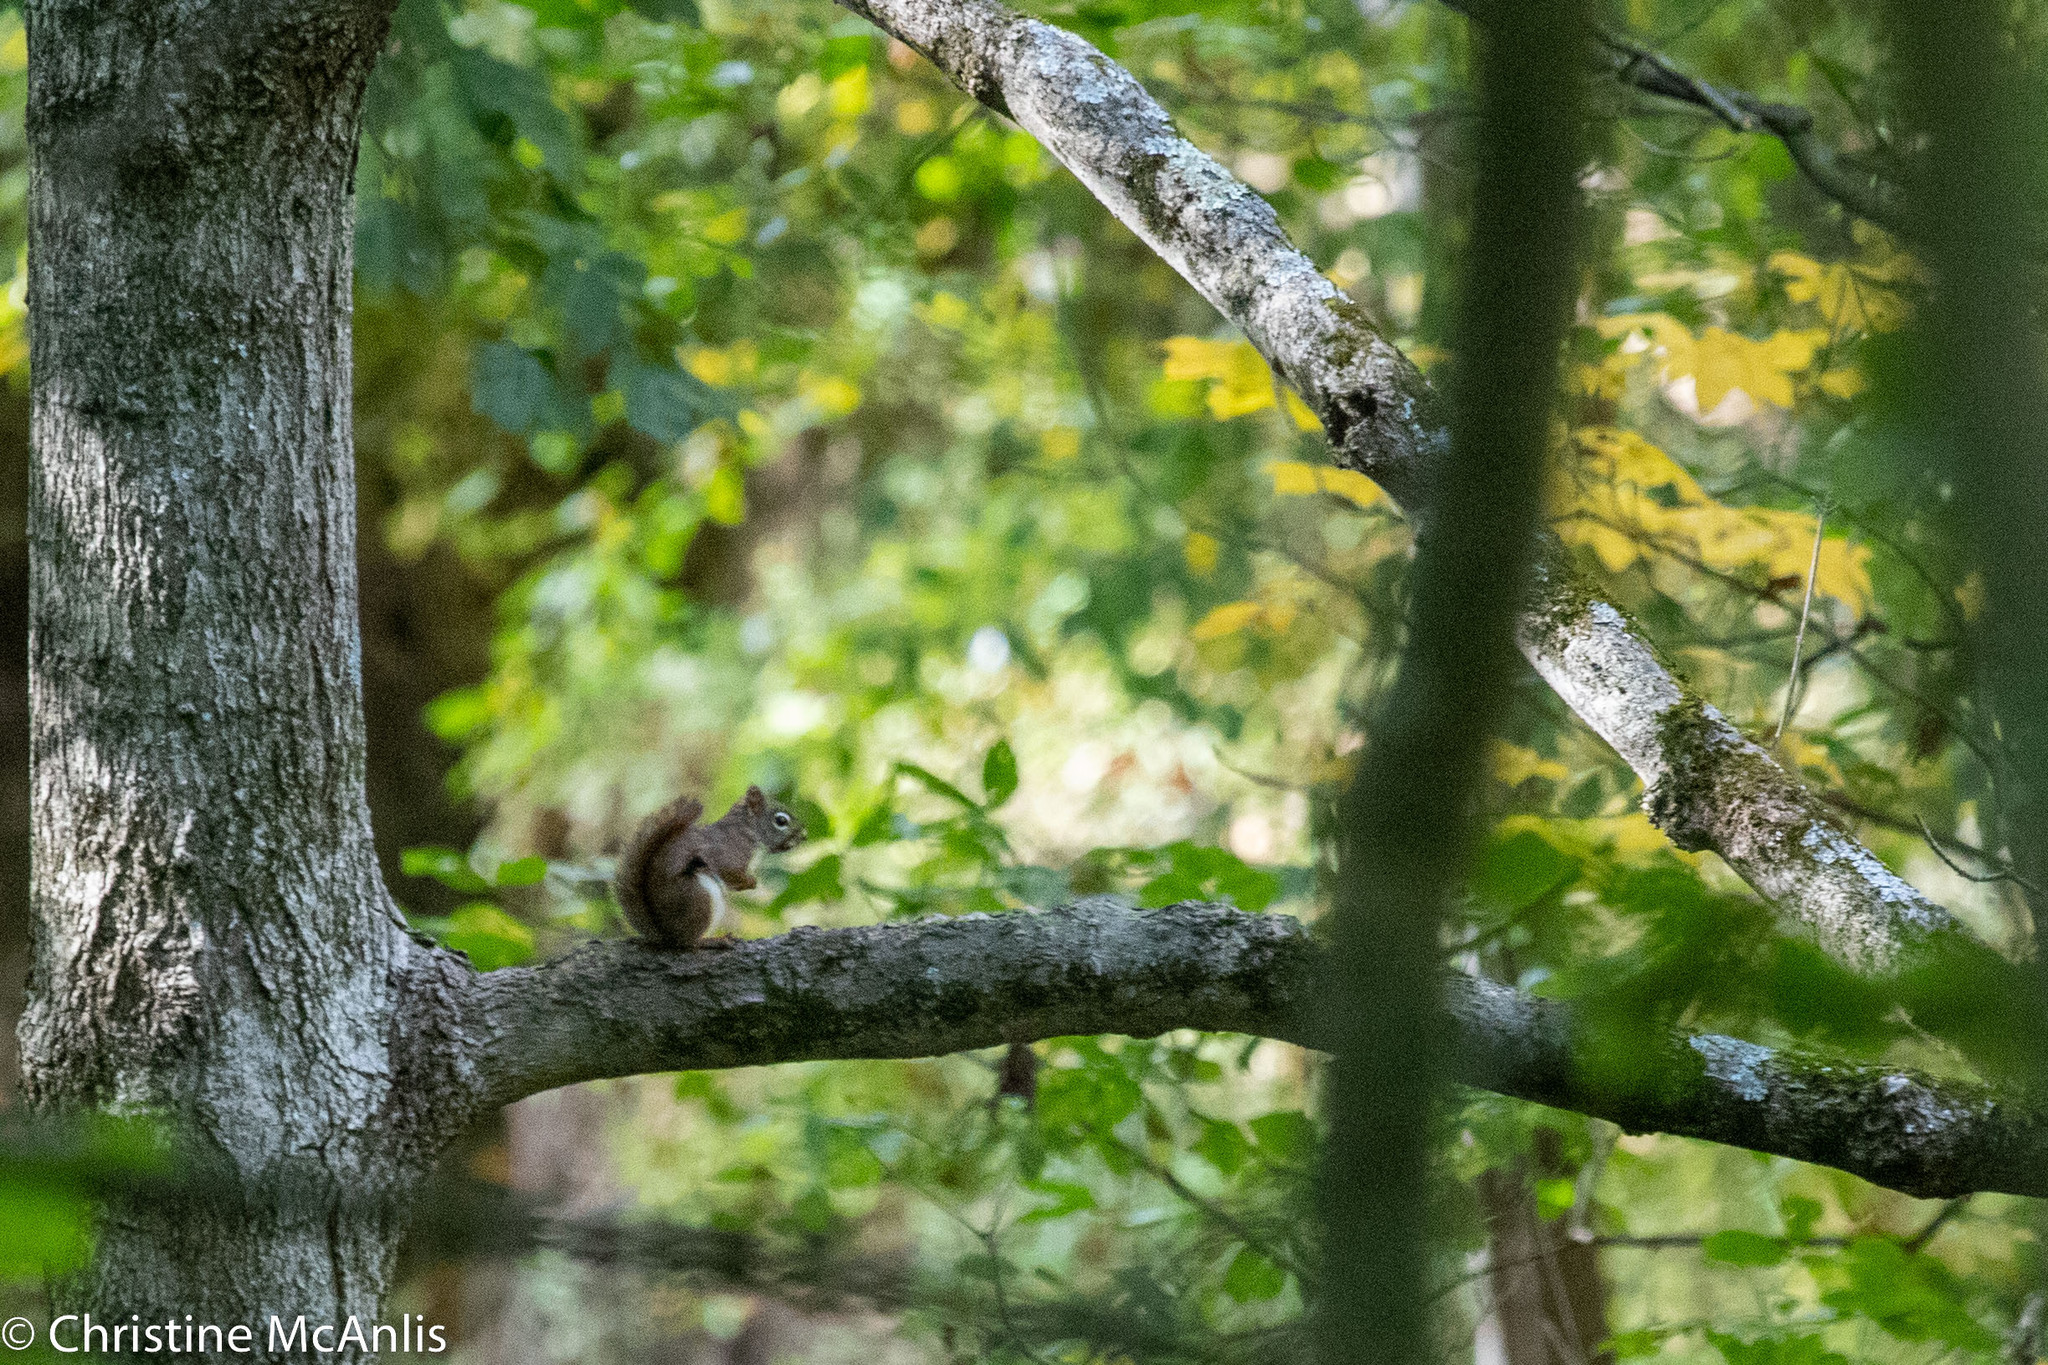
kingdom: Animalia
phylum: Chordata
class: Mammalia
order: Rodentia
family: Sciuridae
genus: Tamiasciurus
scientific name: Tamiasciurus hudsonicus
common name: Red squirrel
